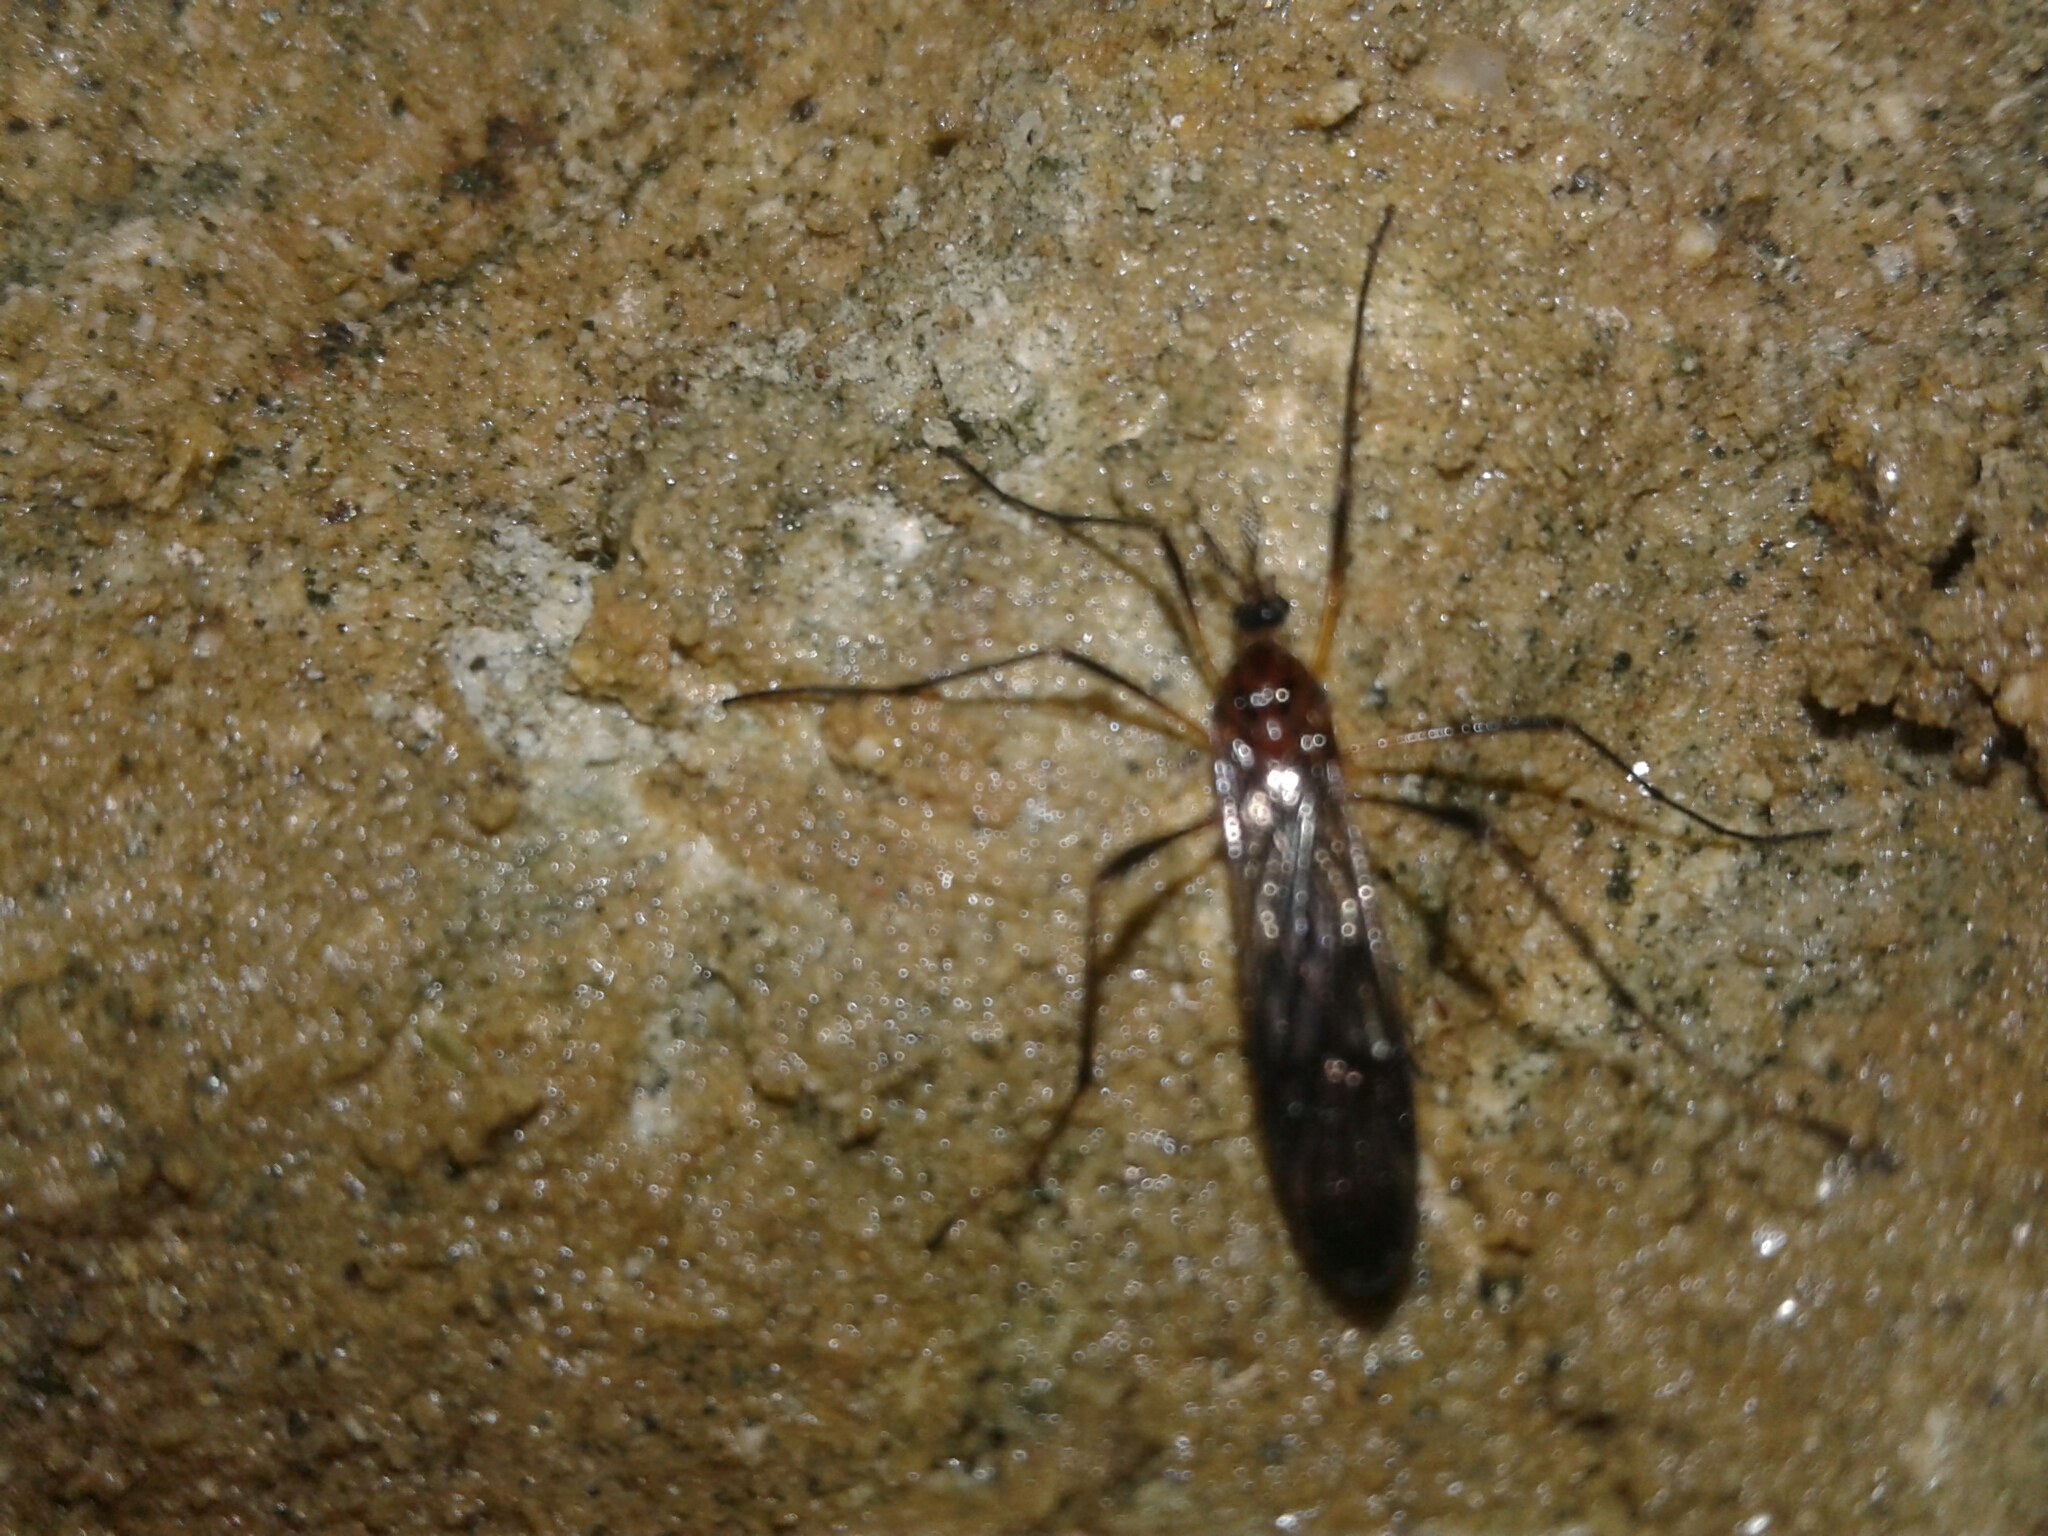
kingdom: Animalia
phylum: Arthropoda
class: Insecta
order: Diptera
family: Limoniidae
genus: Gynoplistia
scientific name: Gynoplistia
